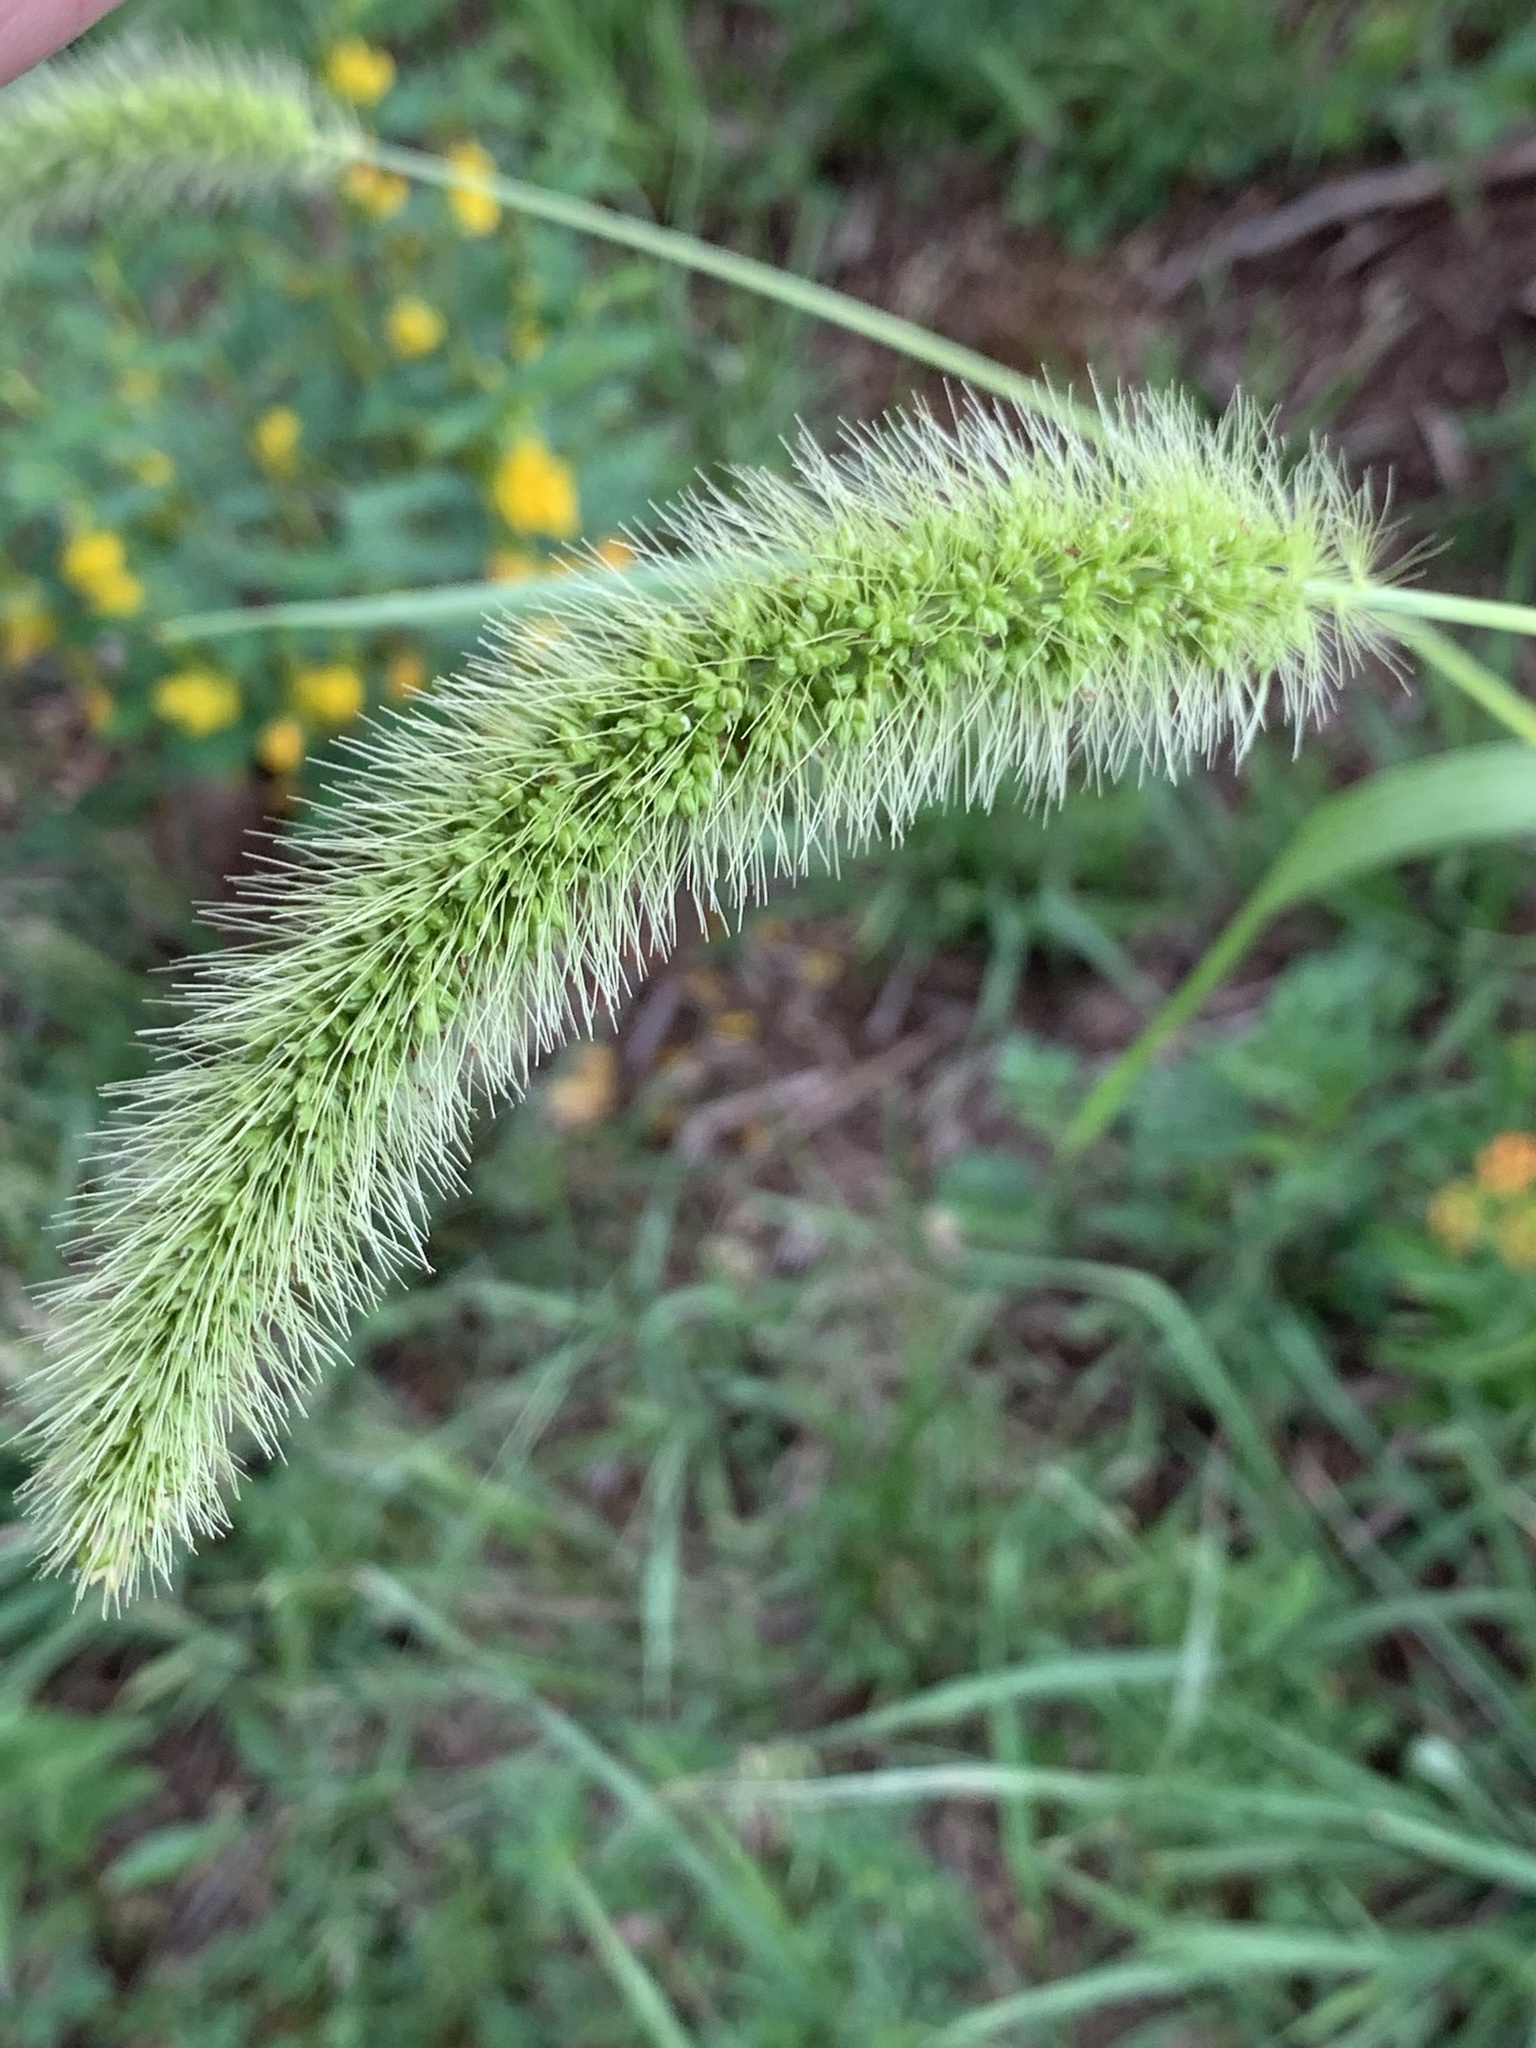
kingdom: Plantae
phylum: Tracheophyta
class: Liliopsida
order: Poales
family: Poaceae
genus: Setaria
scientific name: Setaria faberi
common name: Nodding bristle-grass
